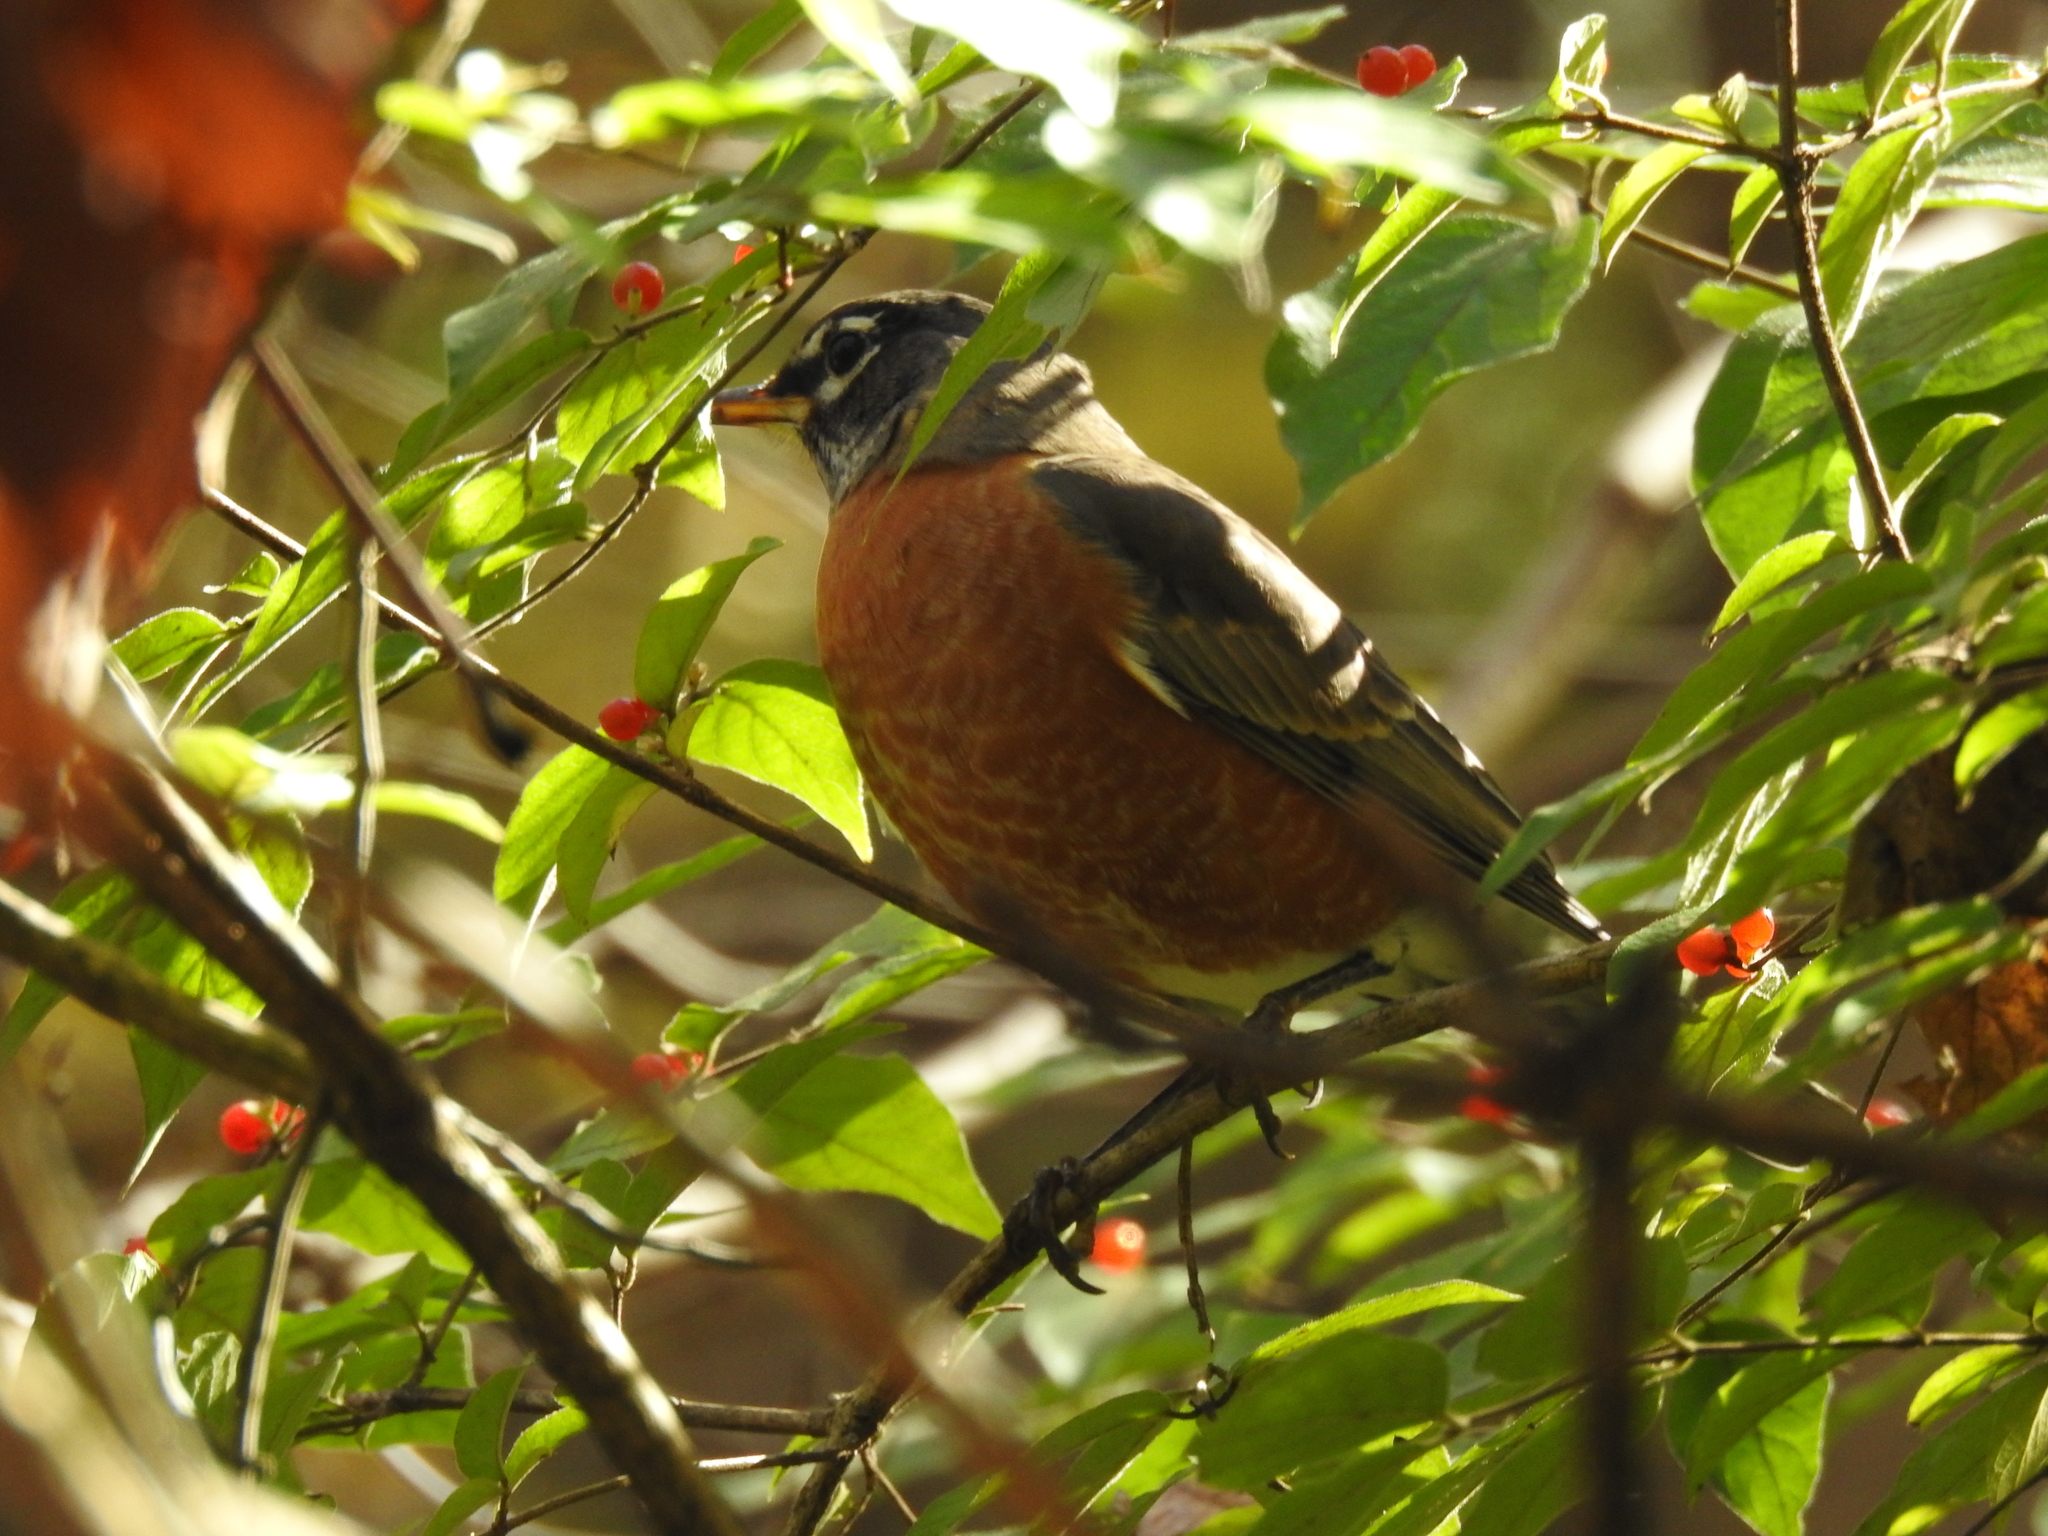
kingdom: Animalia
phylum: Chordata
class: Aves
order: Passeriformes
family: Turdidae
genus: Turdus
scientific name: Turdus migratorius
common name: American robin
